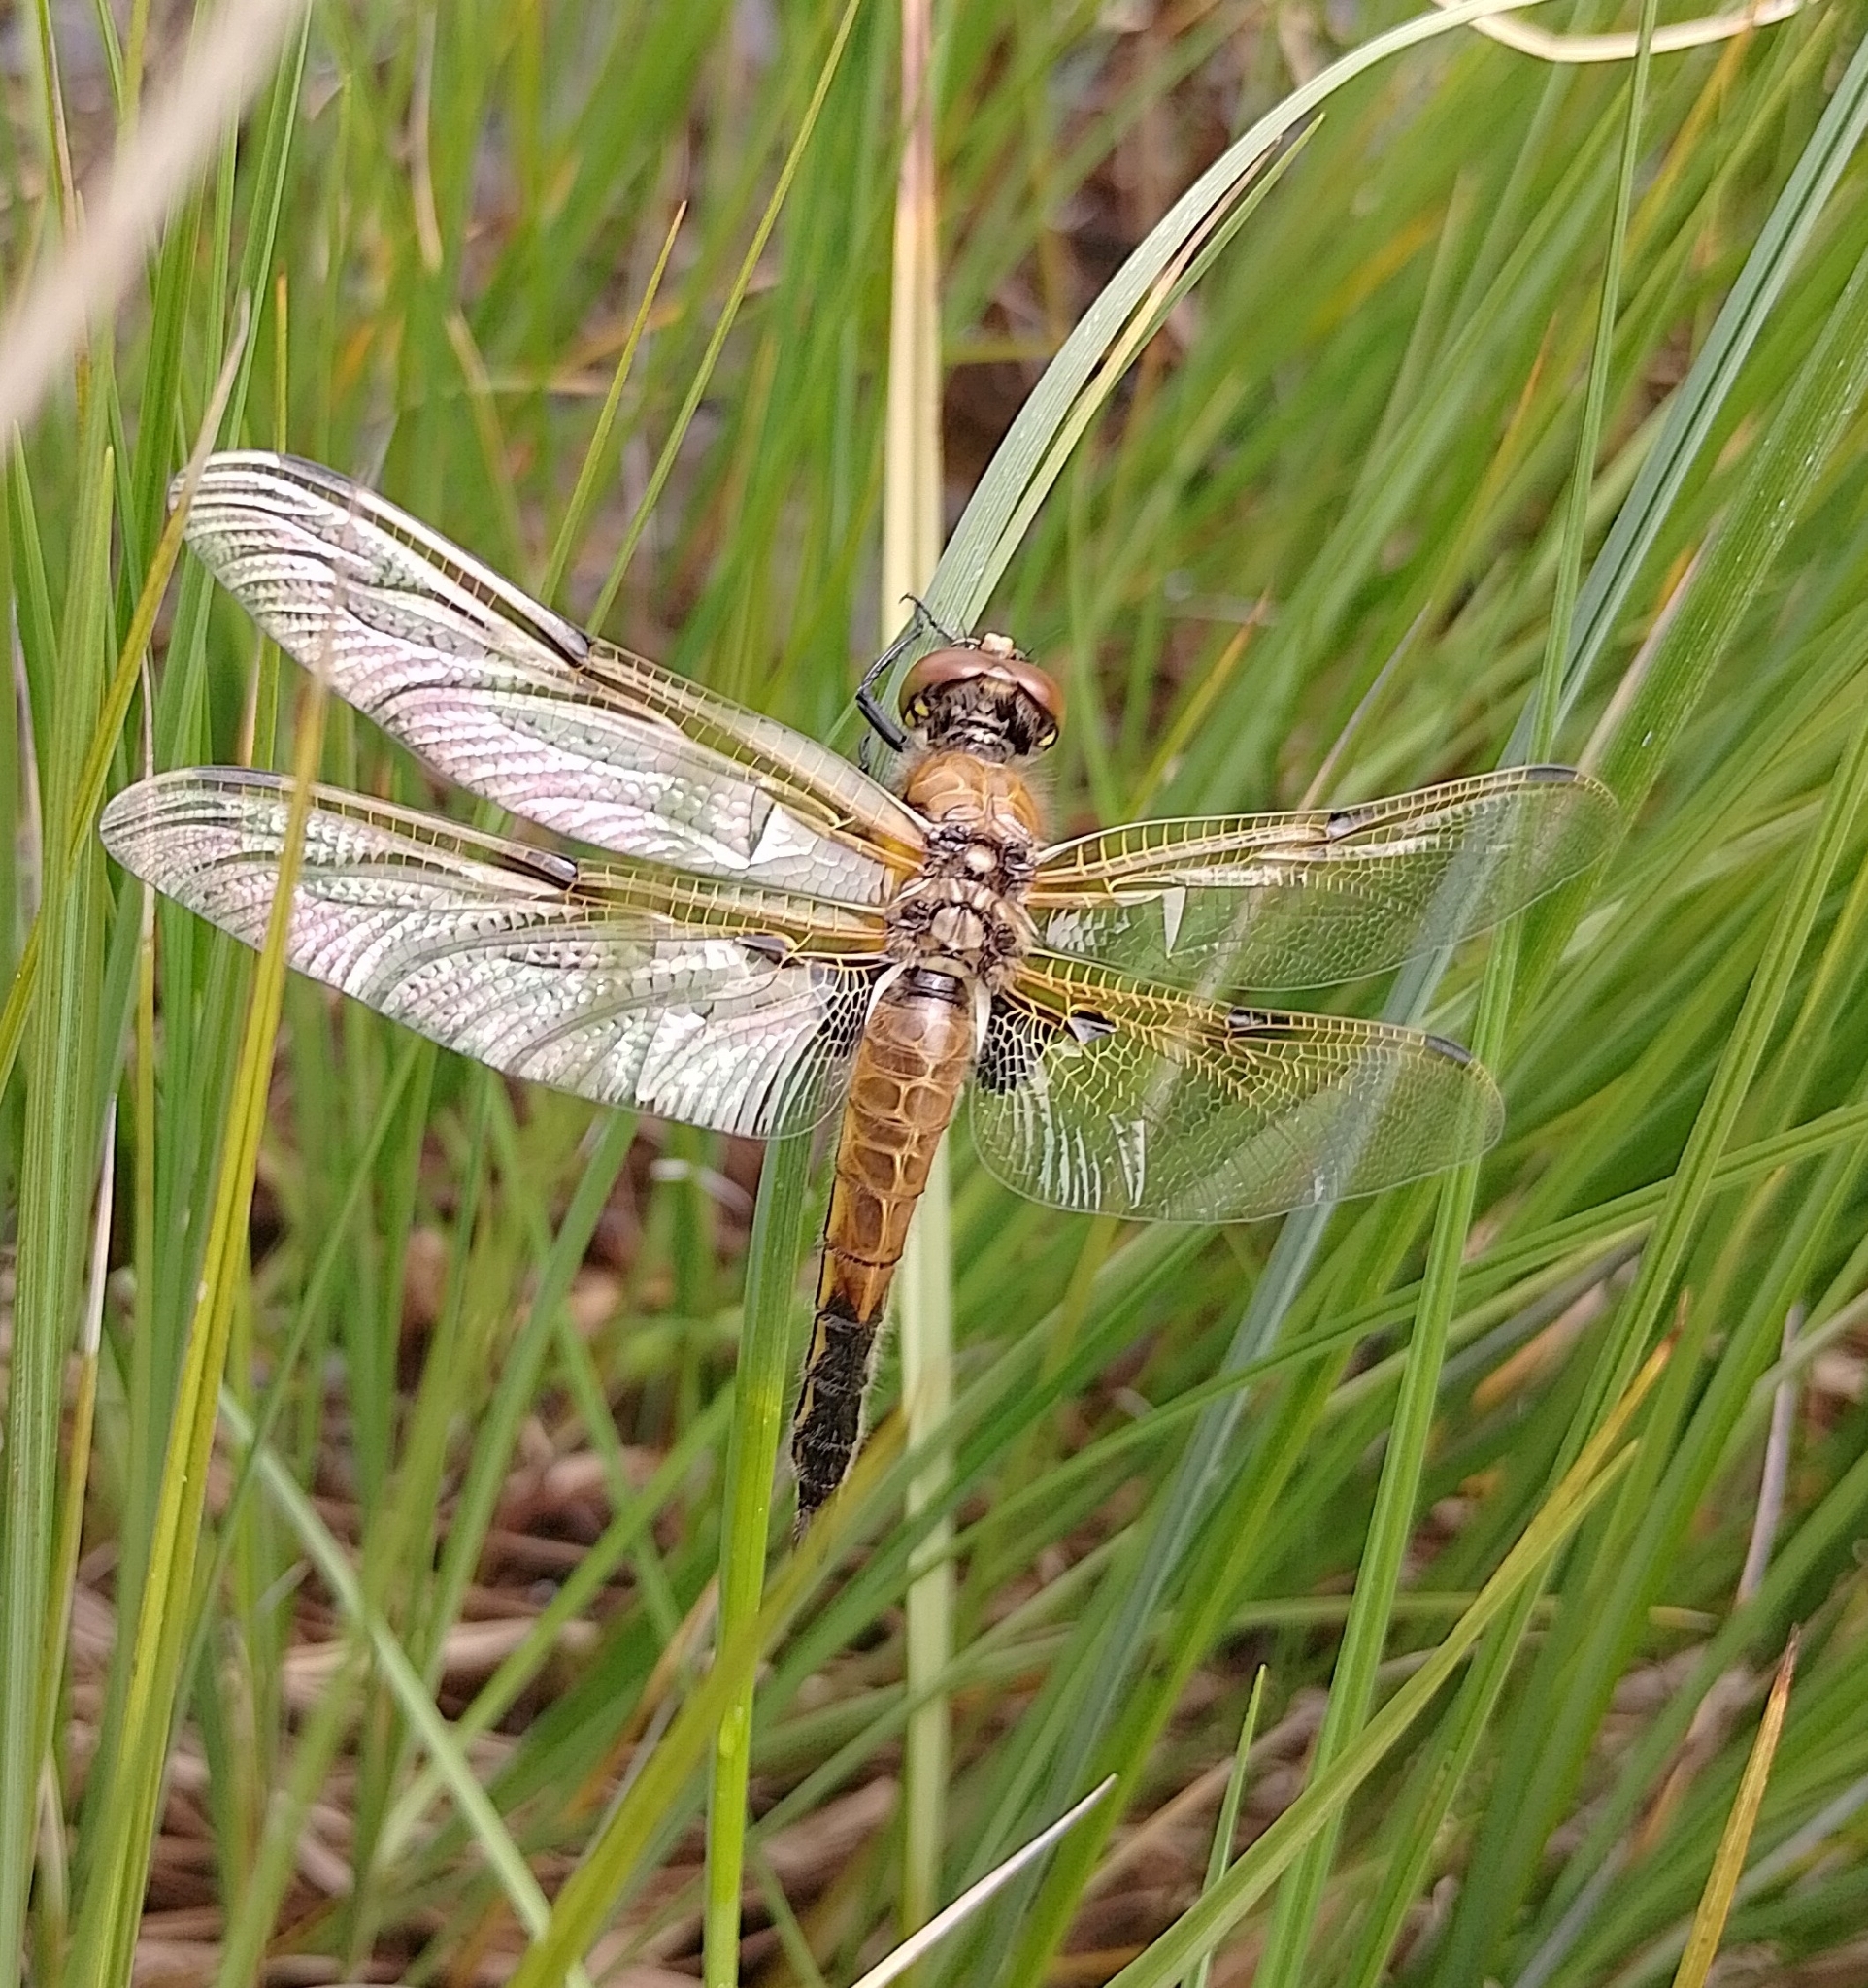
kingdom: Animalia
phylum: Arthropoda
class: Insecta
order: Odonata
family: Libellulidae
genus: Libellula
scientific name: Libellula quadrimaculata
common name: Four-spotted chaser
